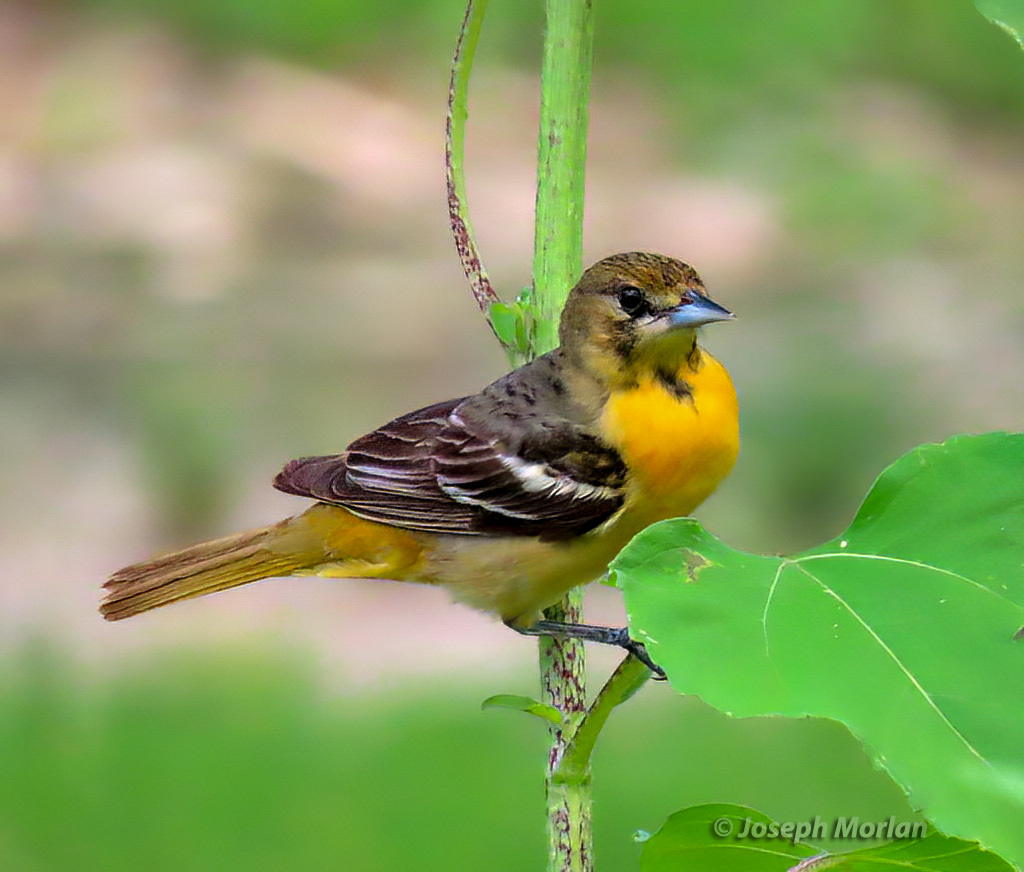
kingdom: Animalia
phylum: Chordata
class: Aves
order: Passeriformes
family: Icteridae
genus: Icterus
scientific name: Icterus galbula
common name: Baltimore oriole
